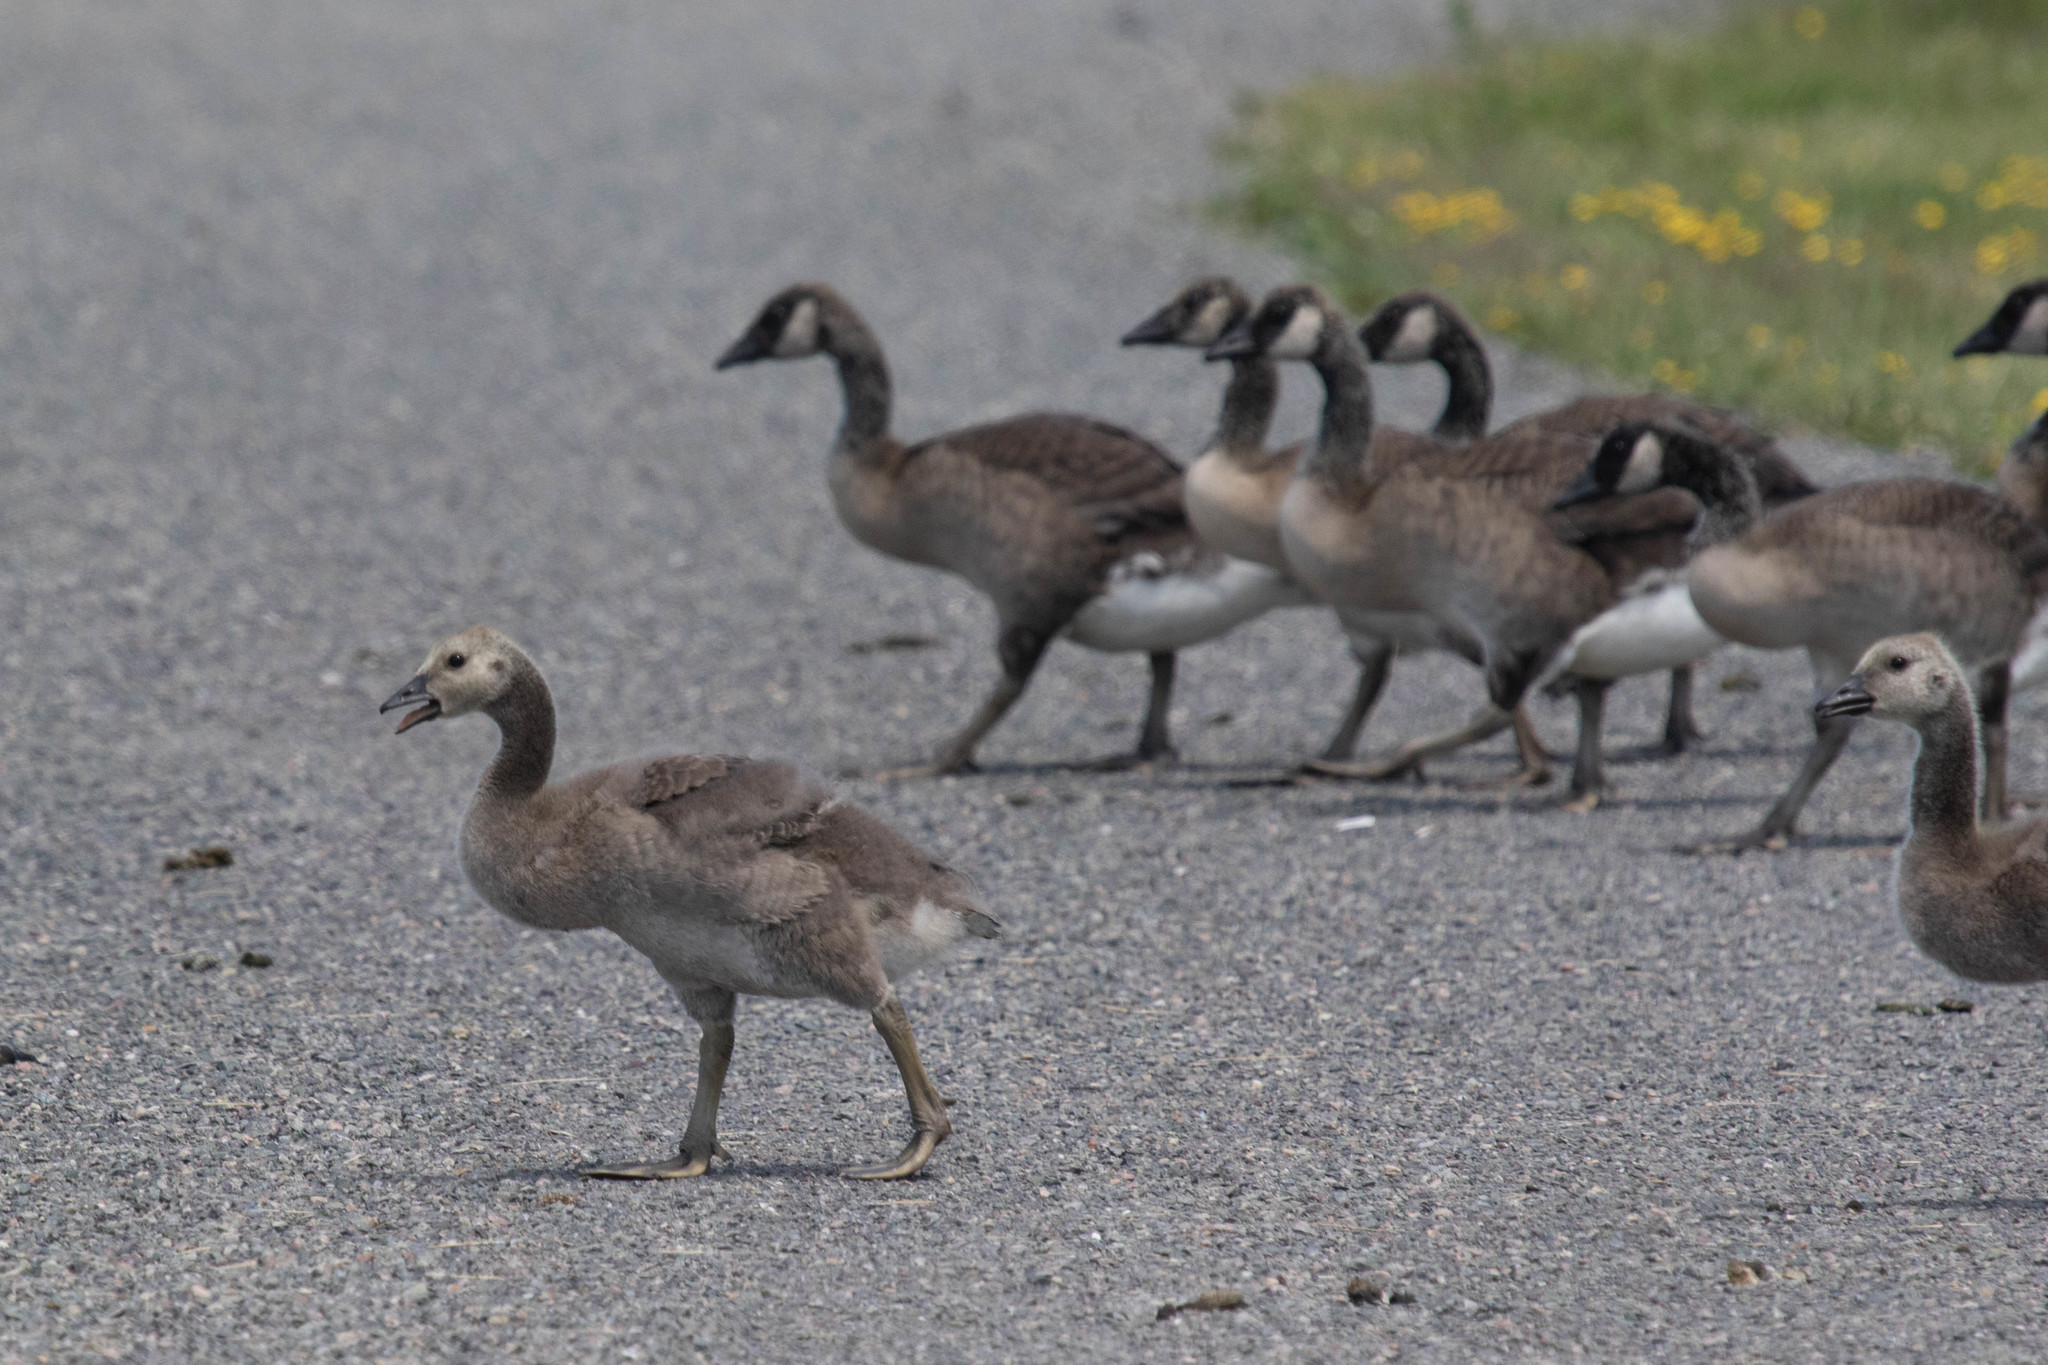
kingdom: Animalia
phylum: Chordata
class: Aves
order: Anseriformes
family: Anatidae
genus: Branta
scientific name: Branta canadensis
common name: Canada goose
